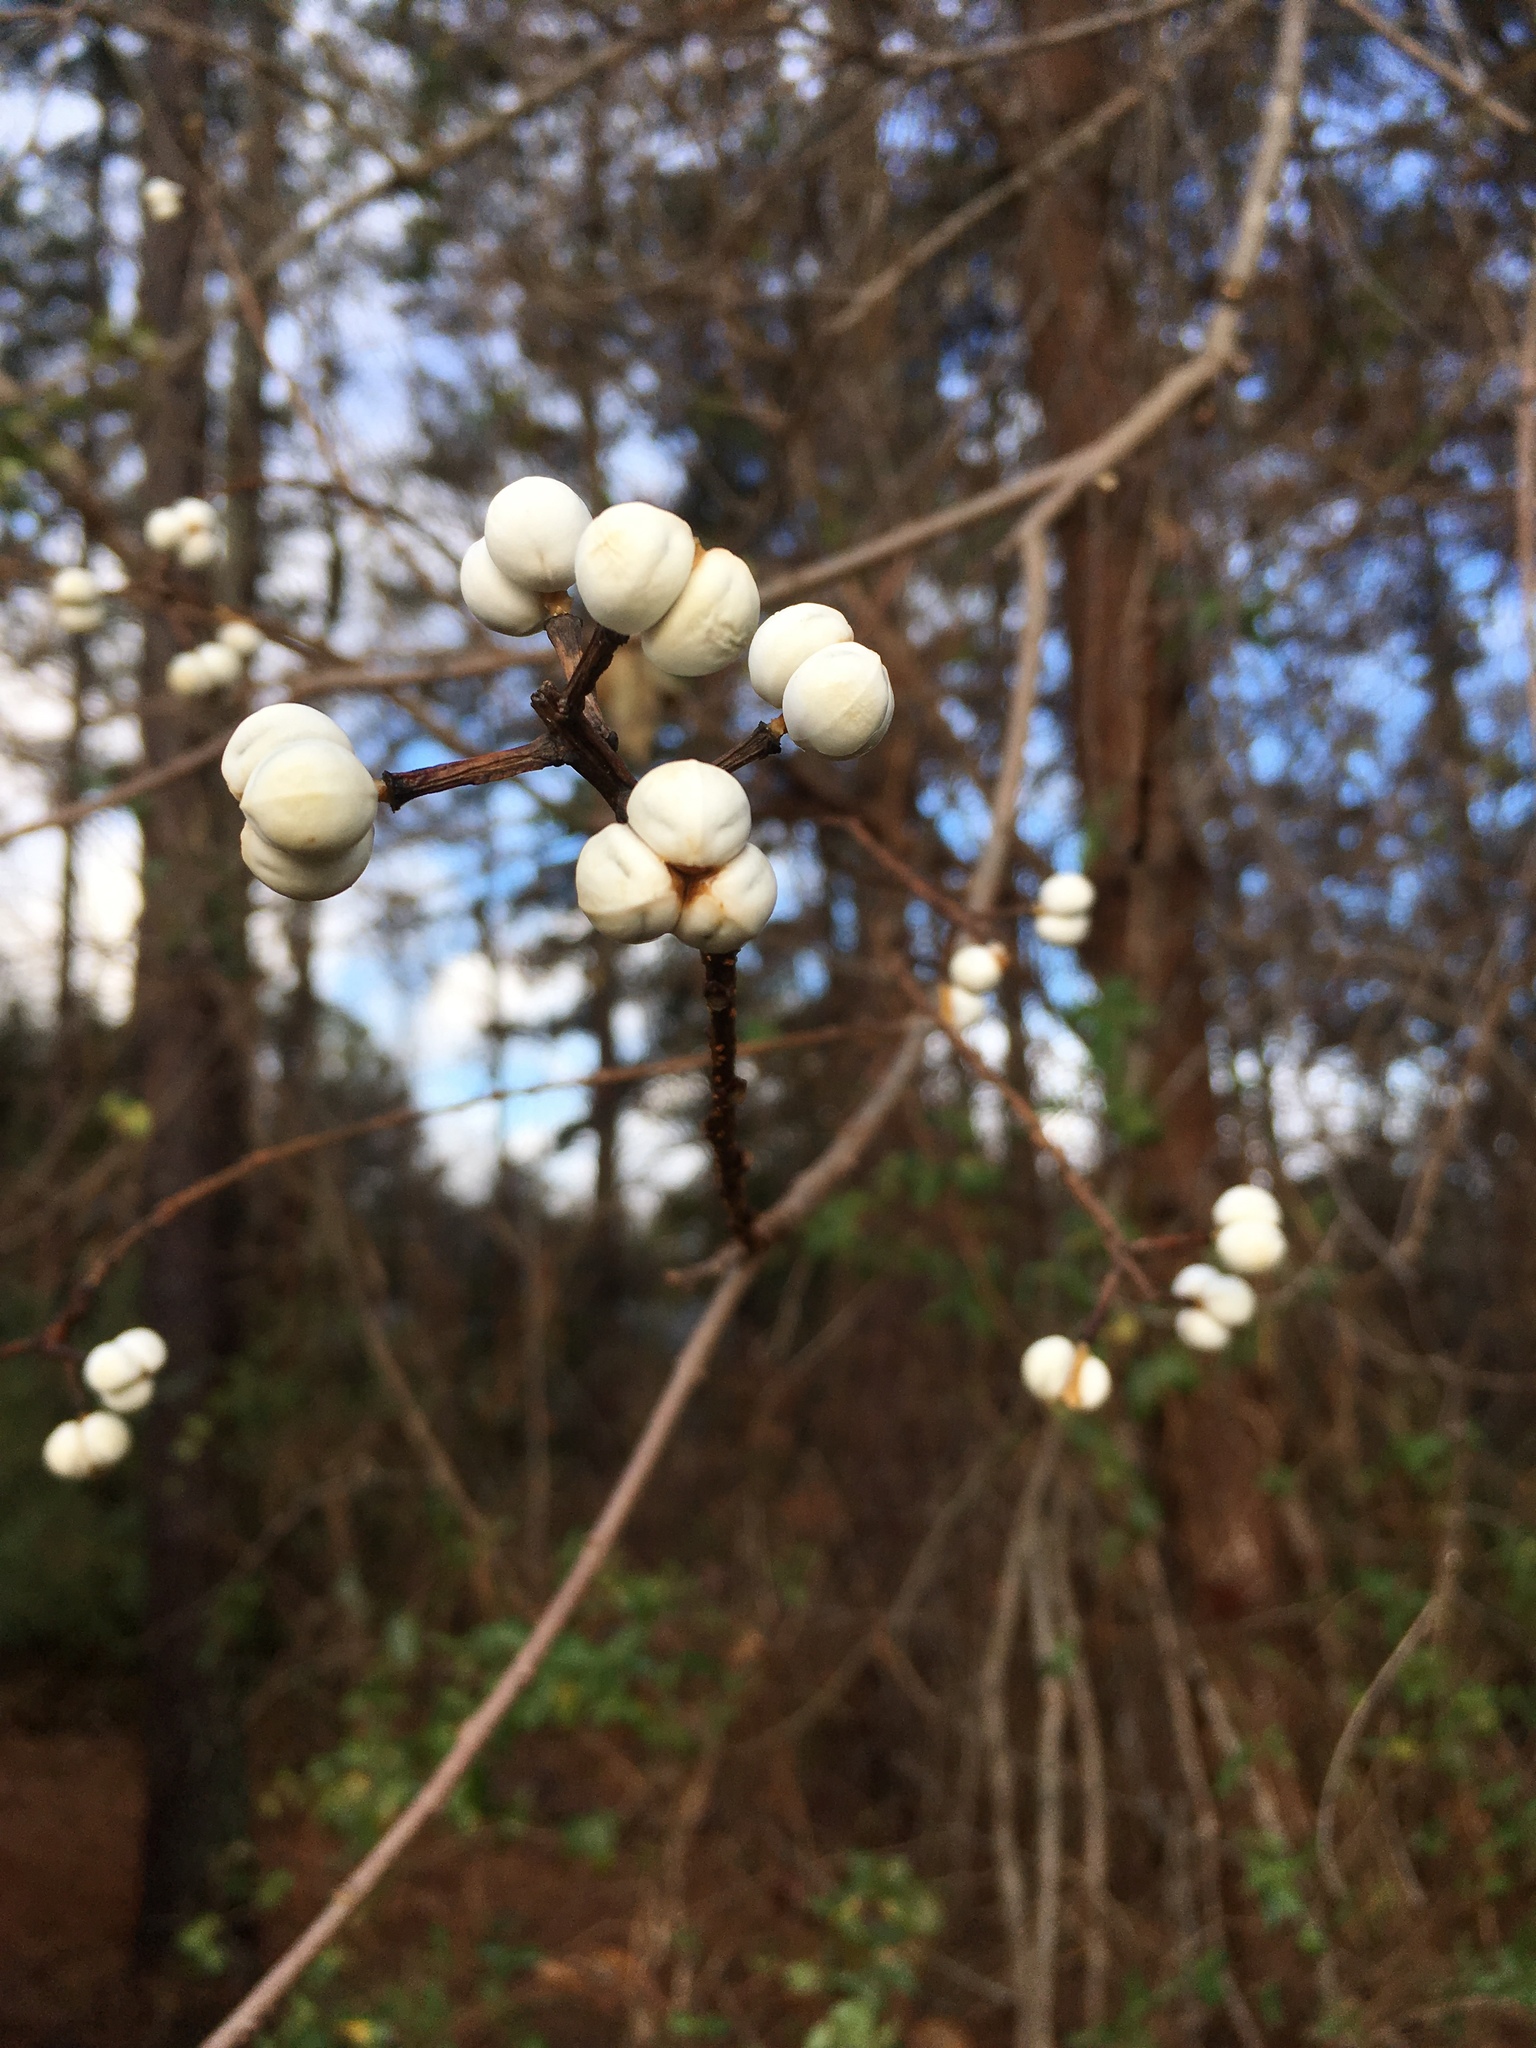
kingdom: Plantae
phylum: Tracheophyta
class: Magnoliopsida
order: Malpighiales
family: Euphorbiaceae
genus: Triadica
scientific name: Triadica sebifera
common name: Chinese tallow
